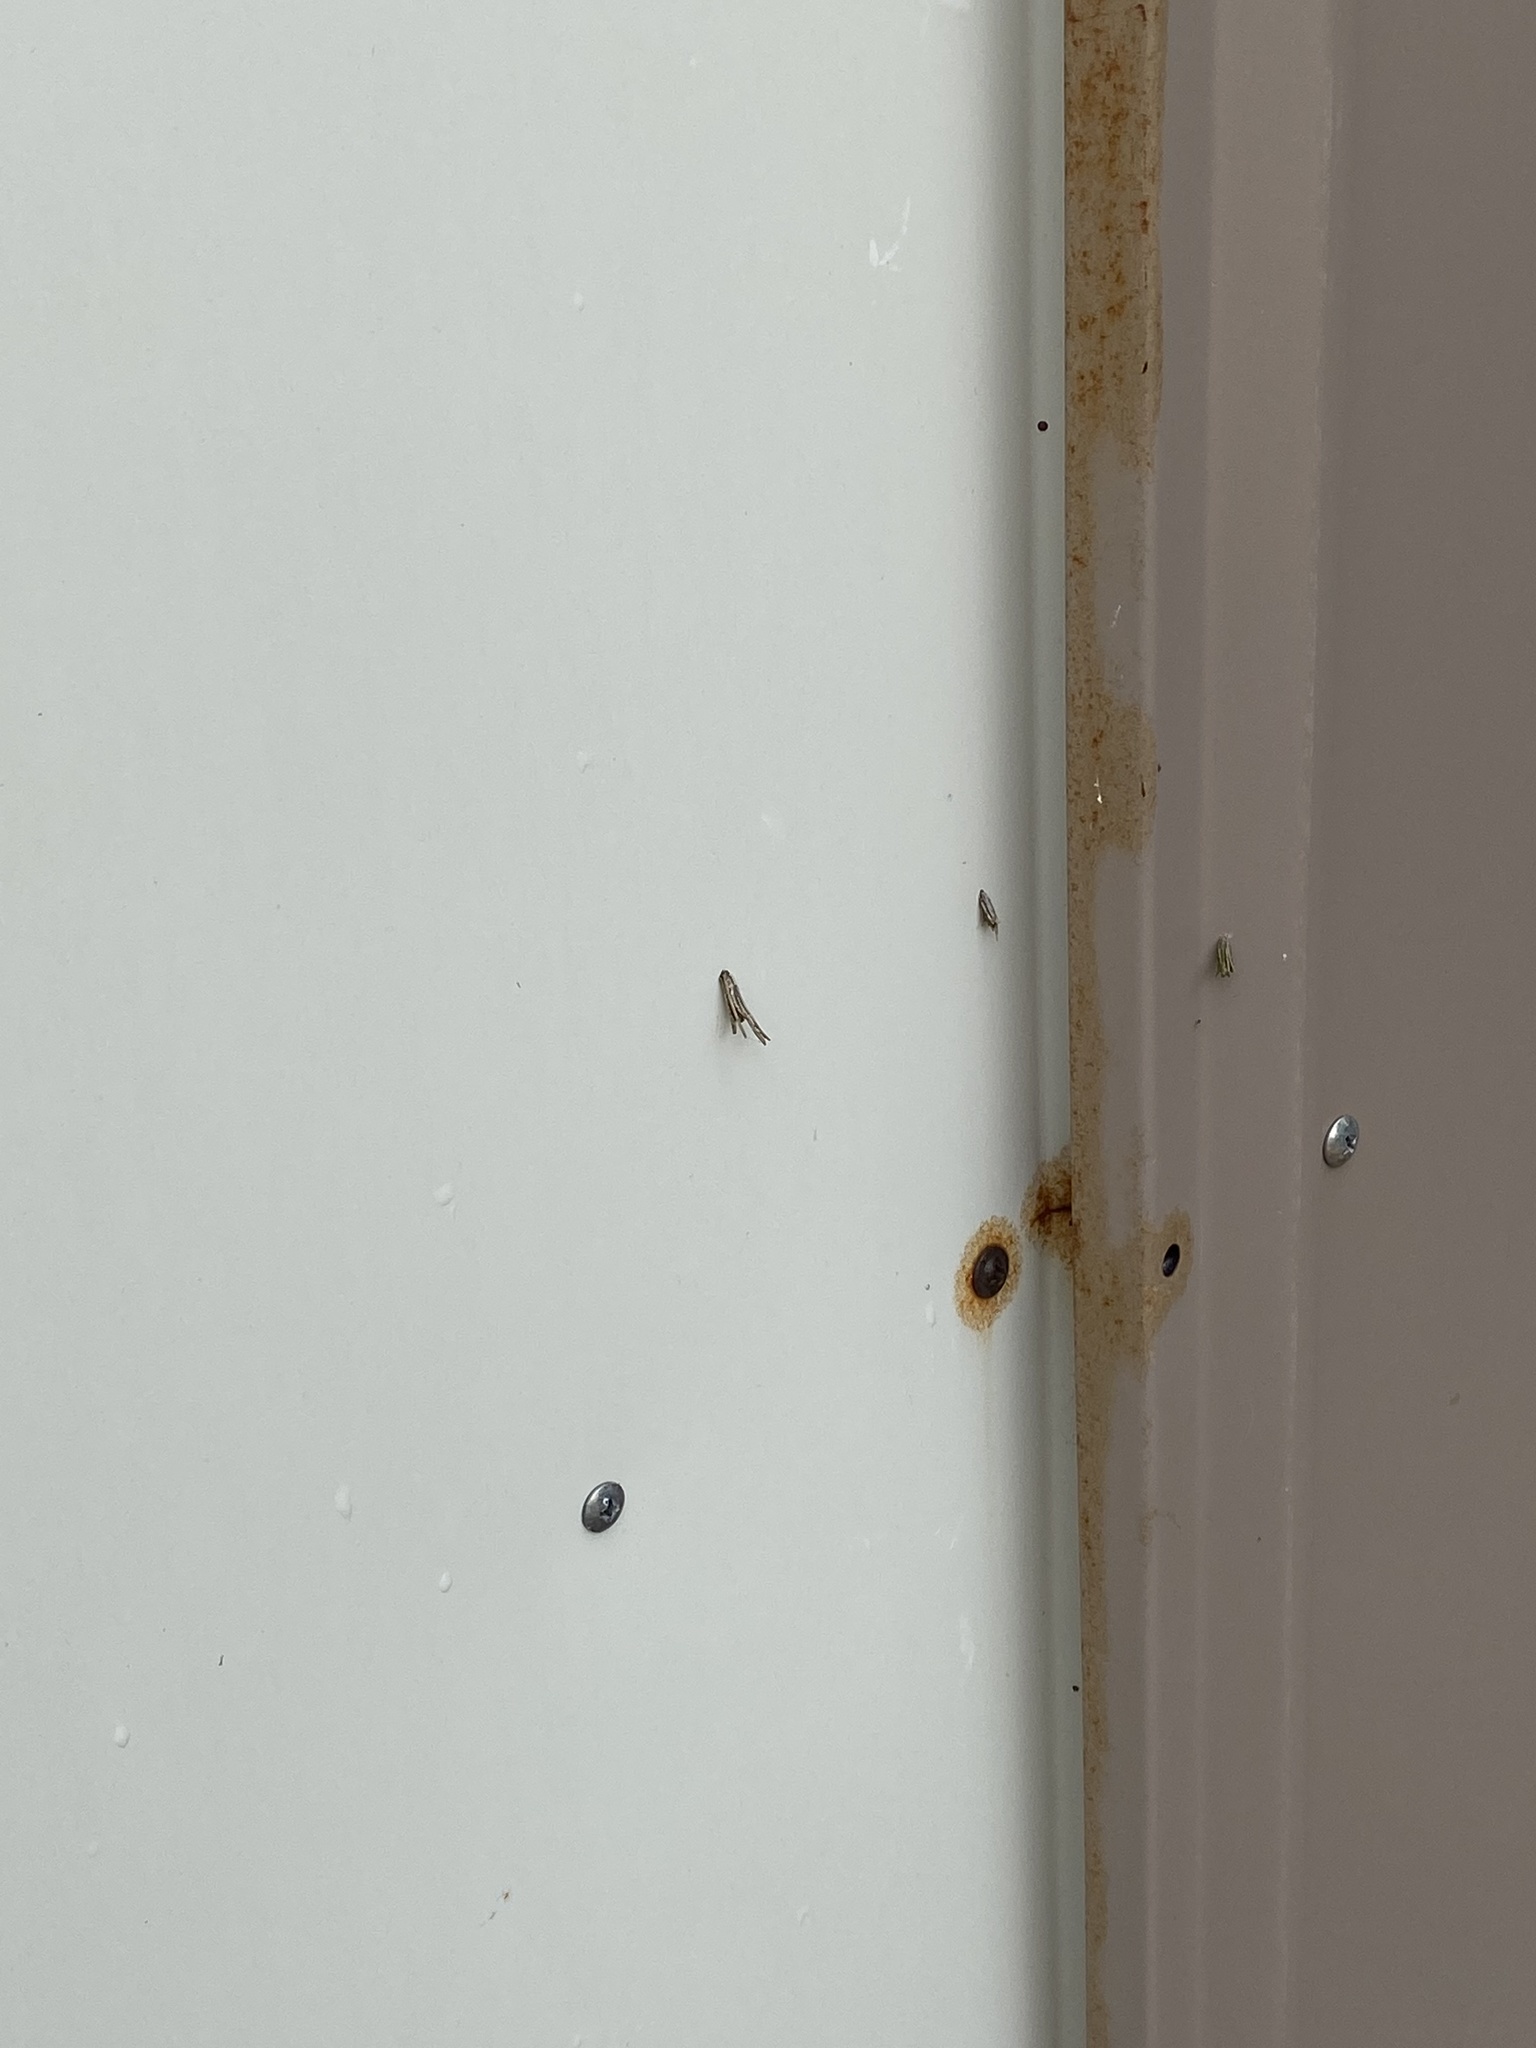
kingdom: Animalia
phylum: Arthropoda
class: Insecta
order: Lepidoptera
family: Psychidae
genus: Psyche
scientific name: Psyche casta
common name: Common sweep
